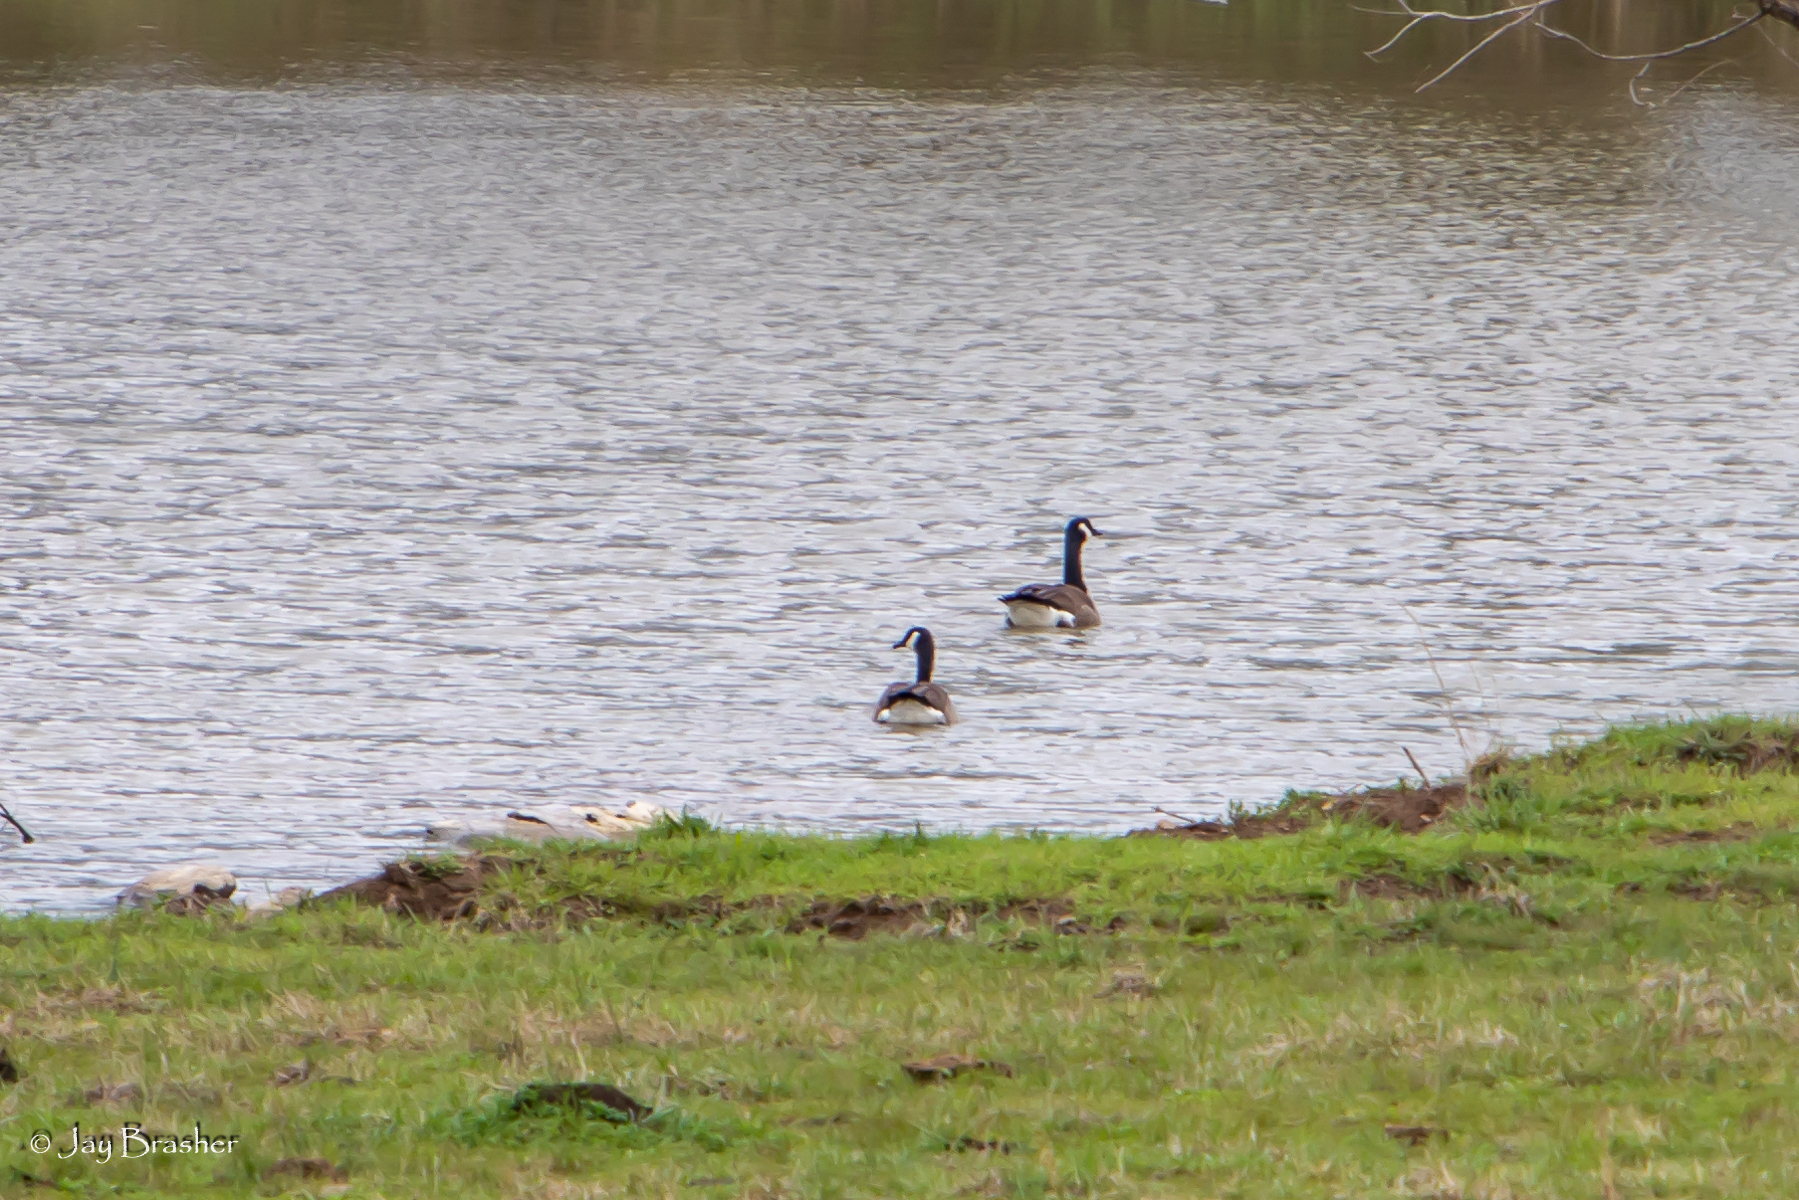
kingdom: Animalia
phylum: Chordata
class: Aves
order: Anseriformes
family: Anatidae
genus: Branta
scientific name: Branta canadensis
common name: Canada goose
